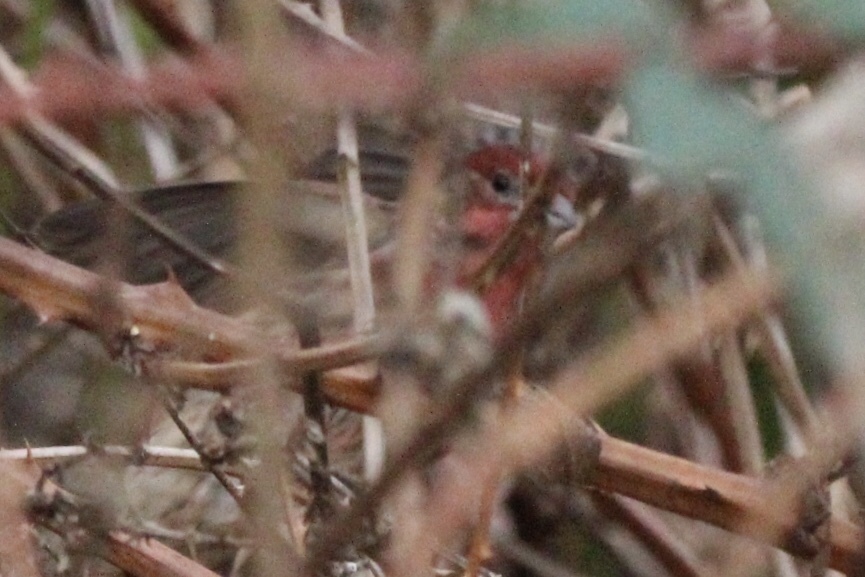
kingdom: Animalia
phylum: Chordata
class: Aves
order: Passeriformes
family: Fringillidae
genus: Haemorhous
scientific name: Haemorhous mexicanus
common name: House finch
